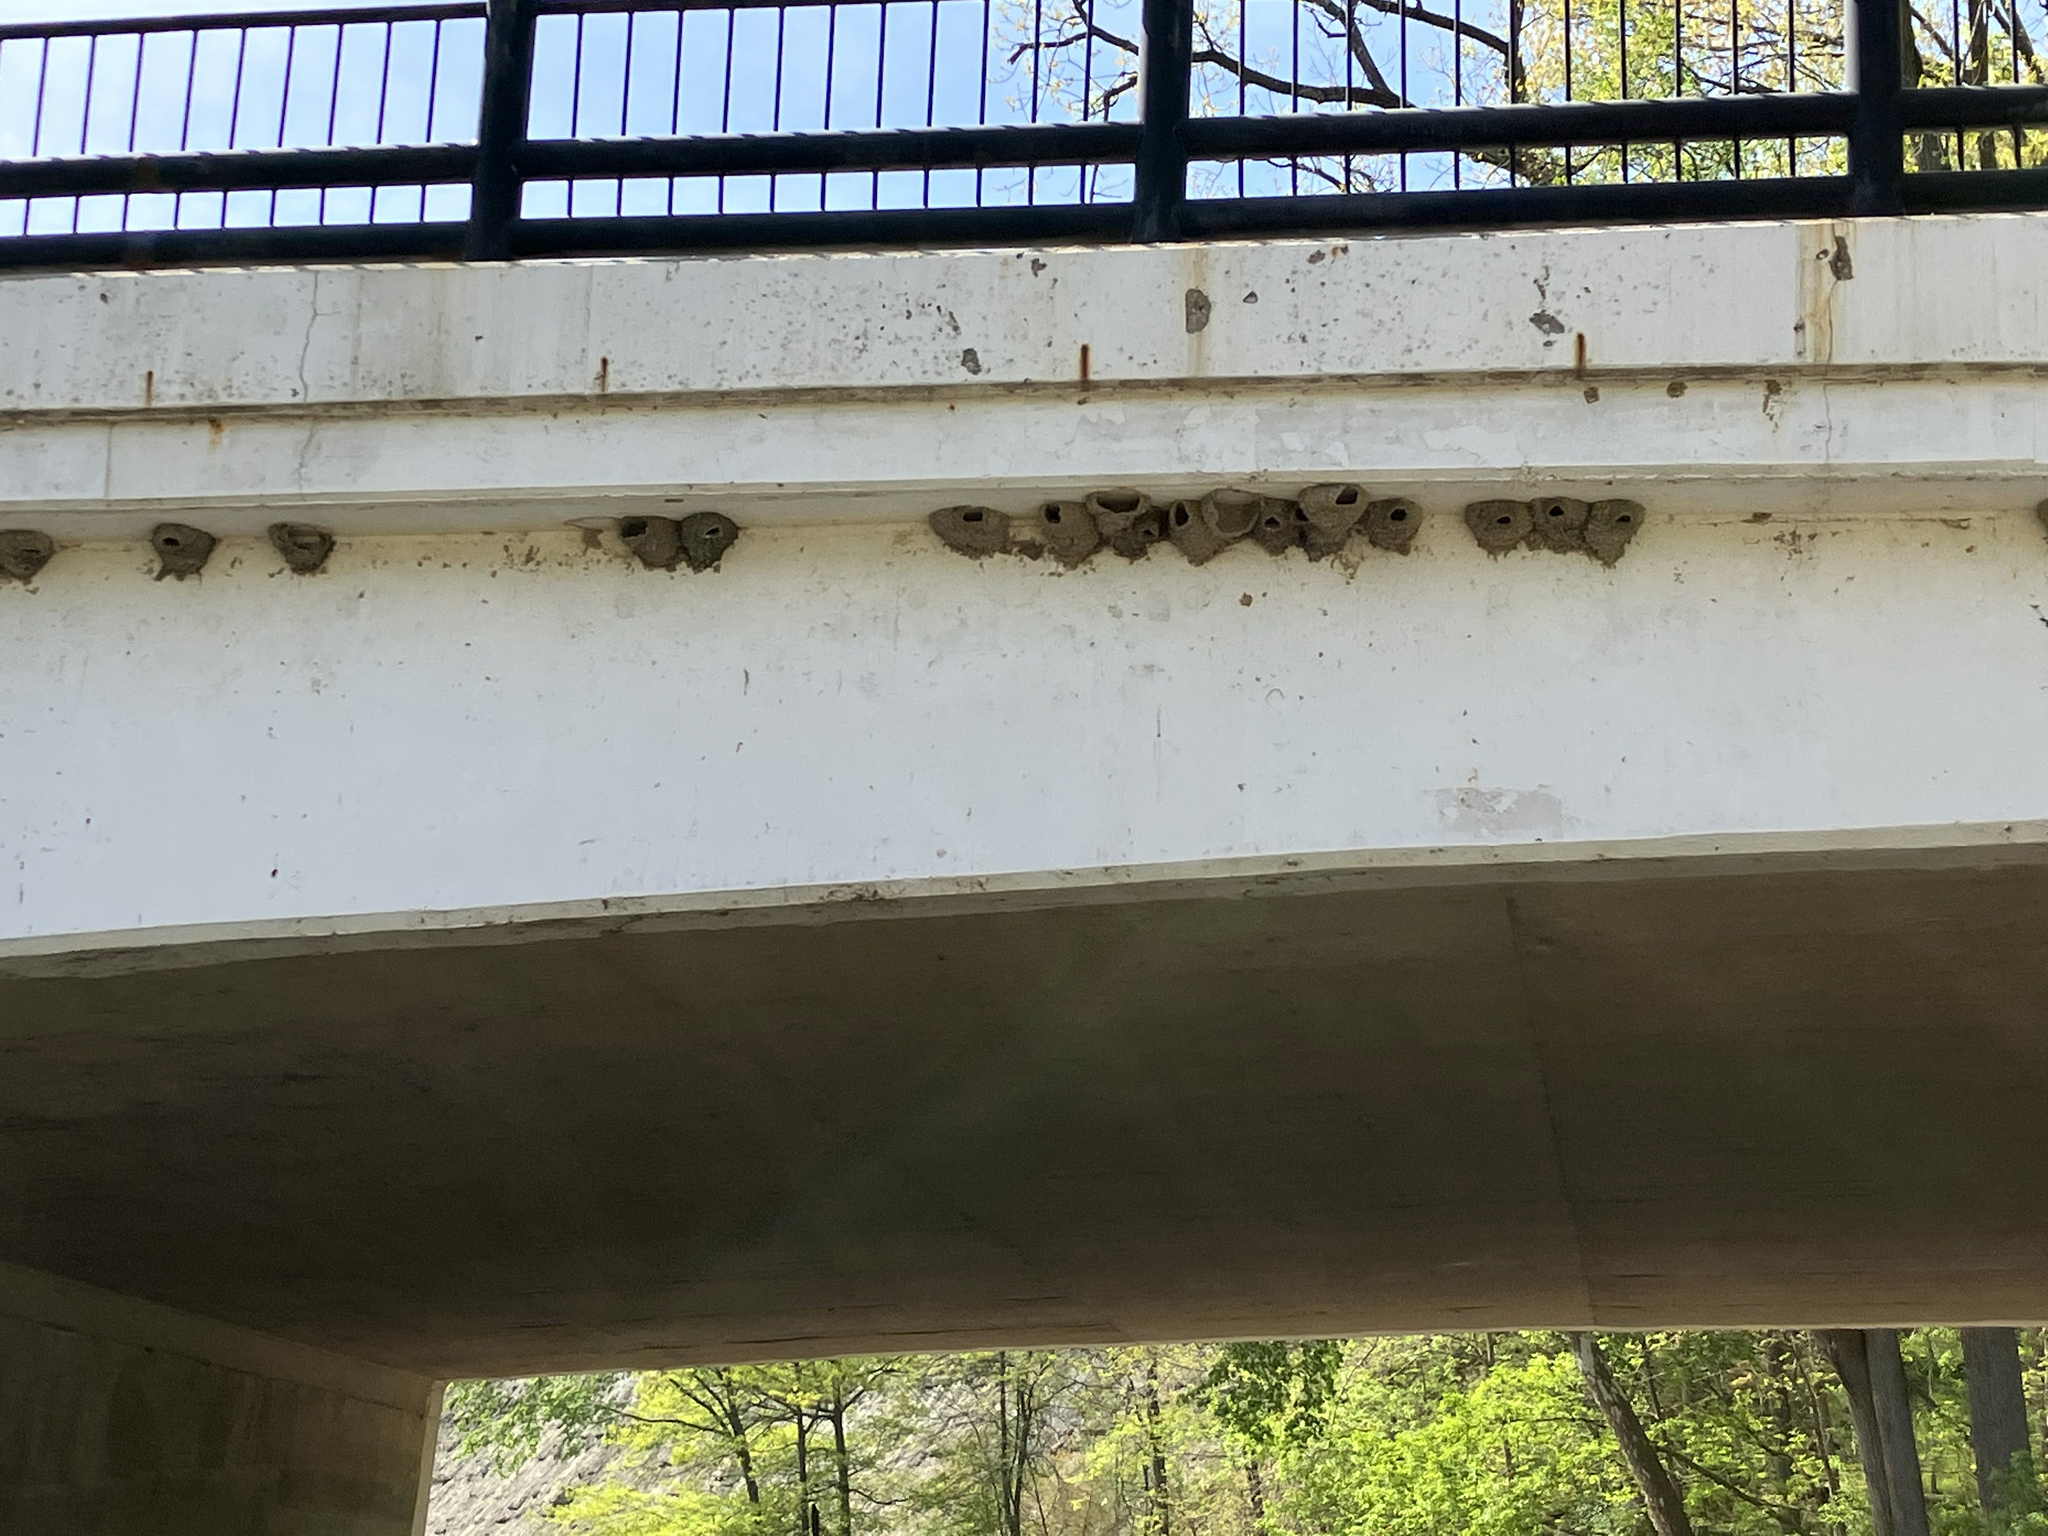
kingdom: Animalia
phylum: Chordata
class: Aves
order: Passeriformes
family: Hirundinidae
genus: Petrochelidon
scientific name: Petrochelidon pyrrhonota
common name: American cliff swallow
